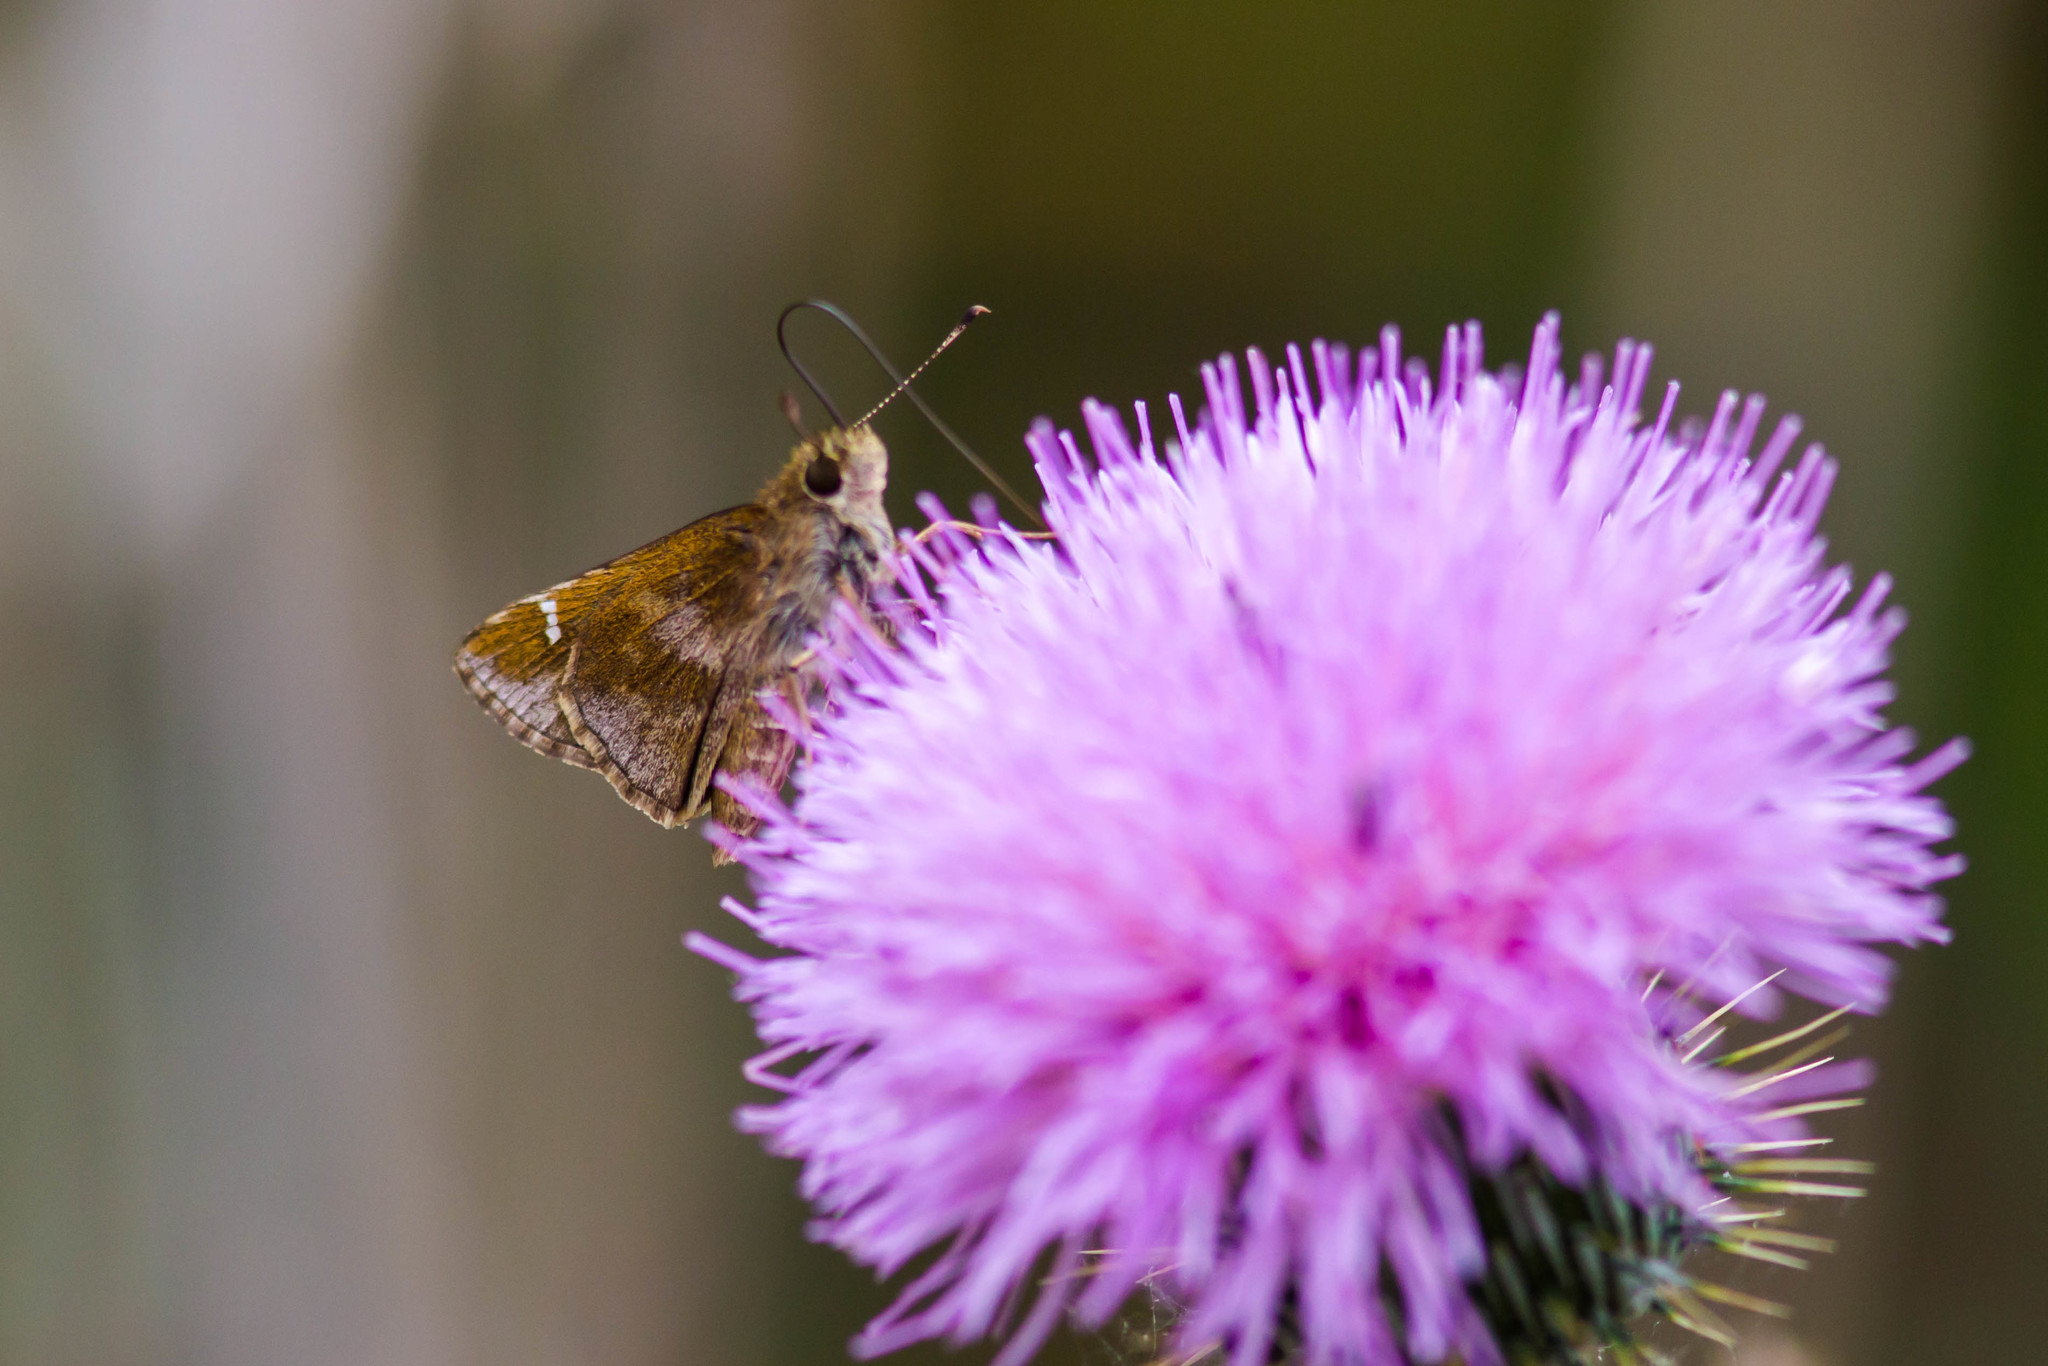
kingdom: Animalia
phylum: Arthropoda
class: Insecta
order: Lepidoptera
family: Hesperiidae
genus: Lerema
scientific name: Lerema accius
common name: Clouded skipper
